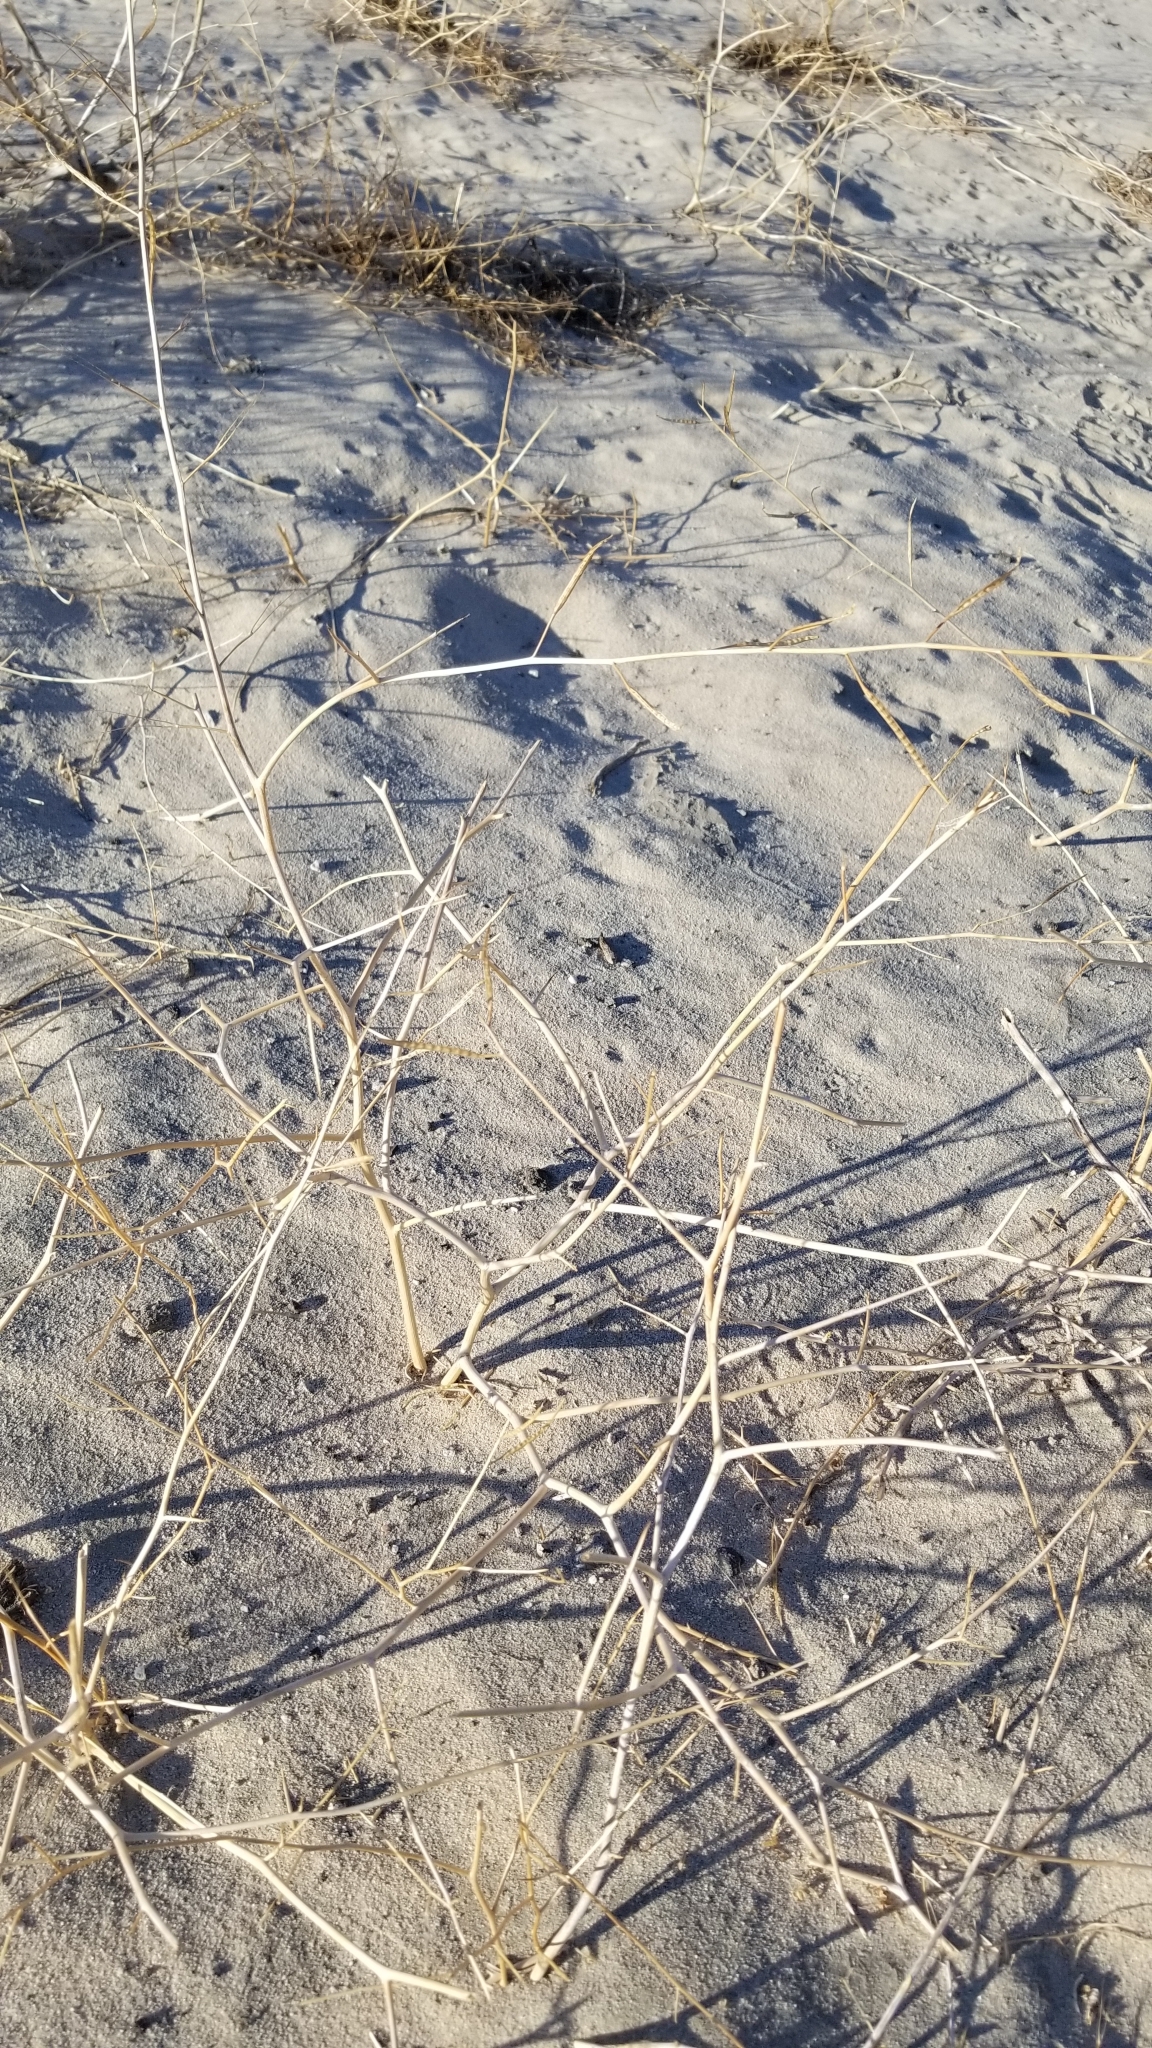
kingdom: Plantae
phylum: Tracheophyta
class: Magnoliopsida
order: Brassicales
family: Brassicaceae
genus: Brassica
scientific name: Brassica tournefortii
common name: Pale cabbage
